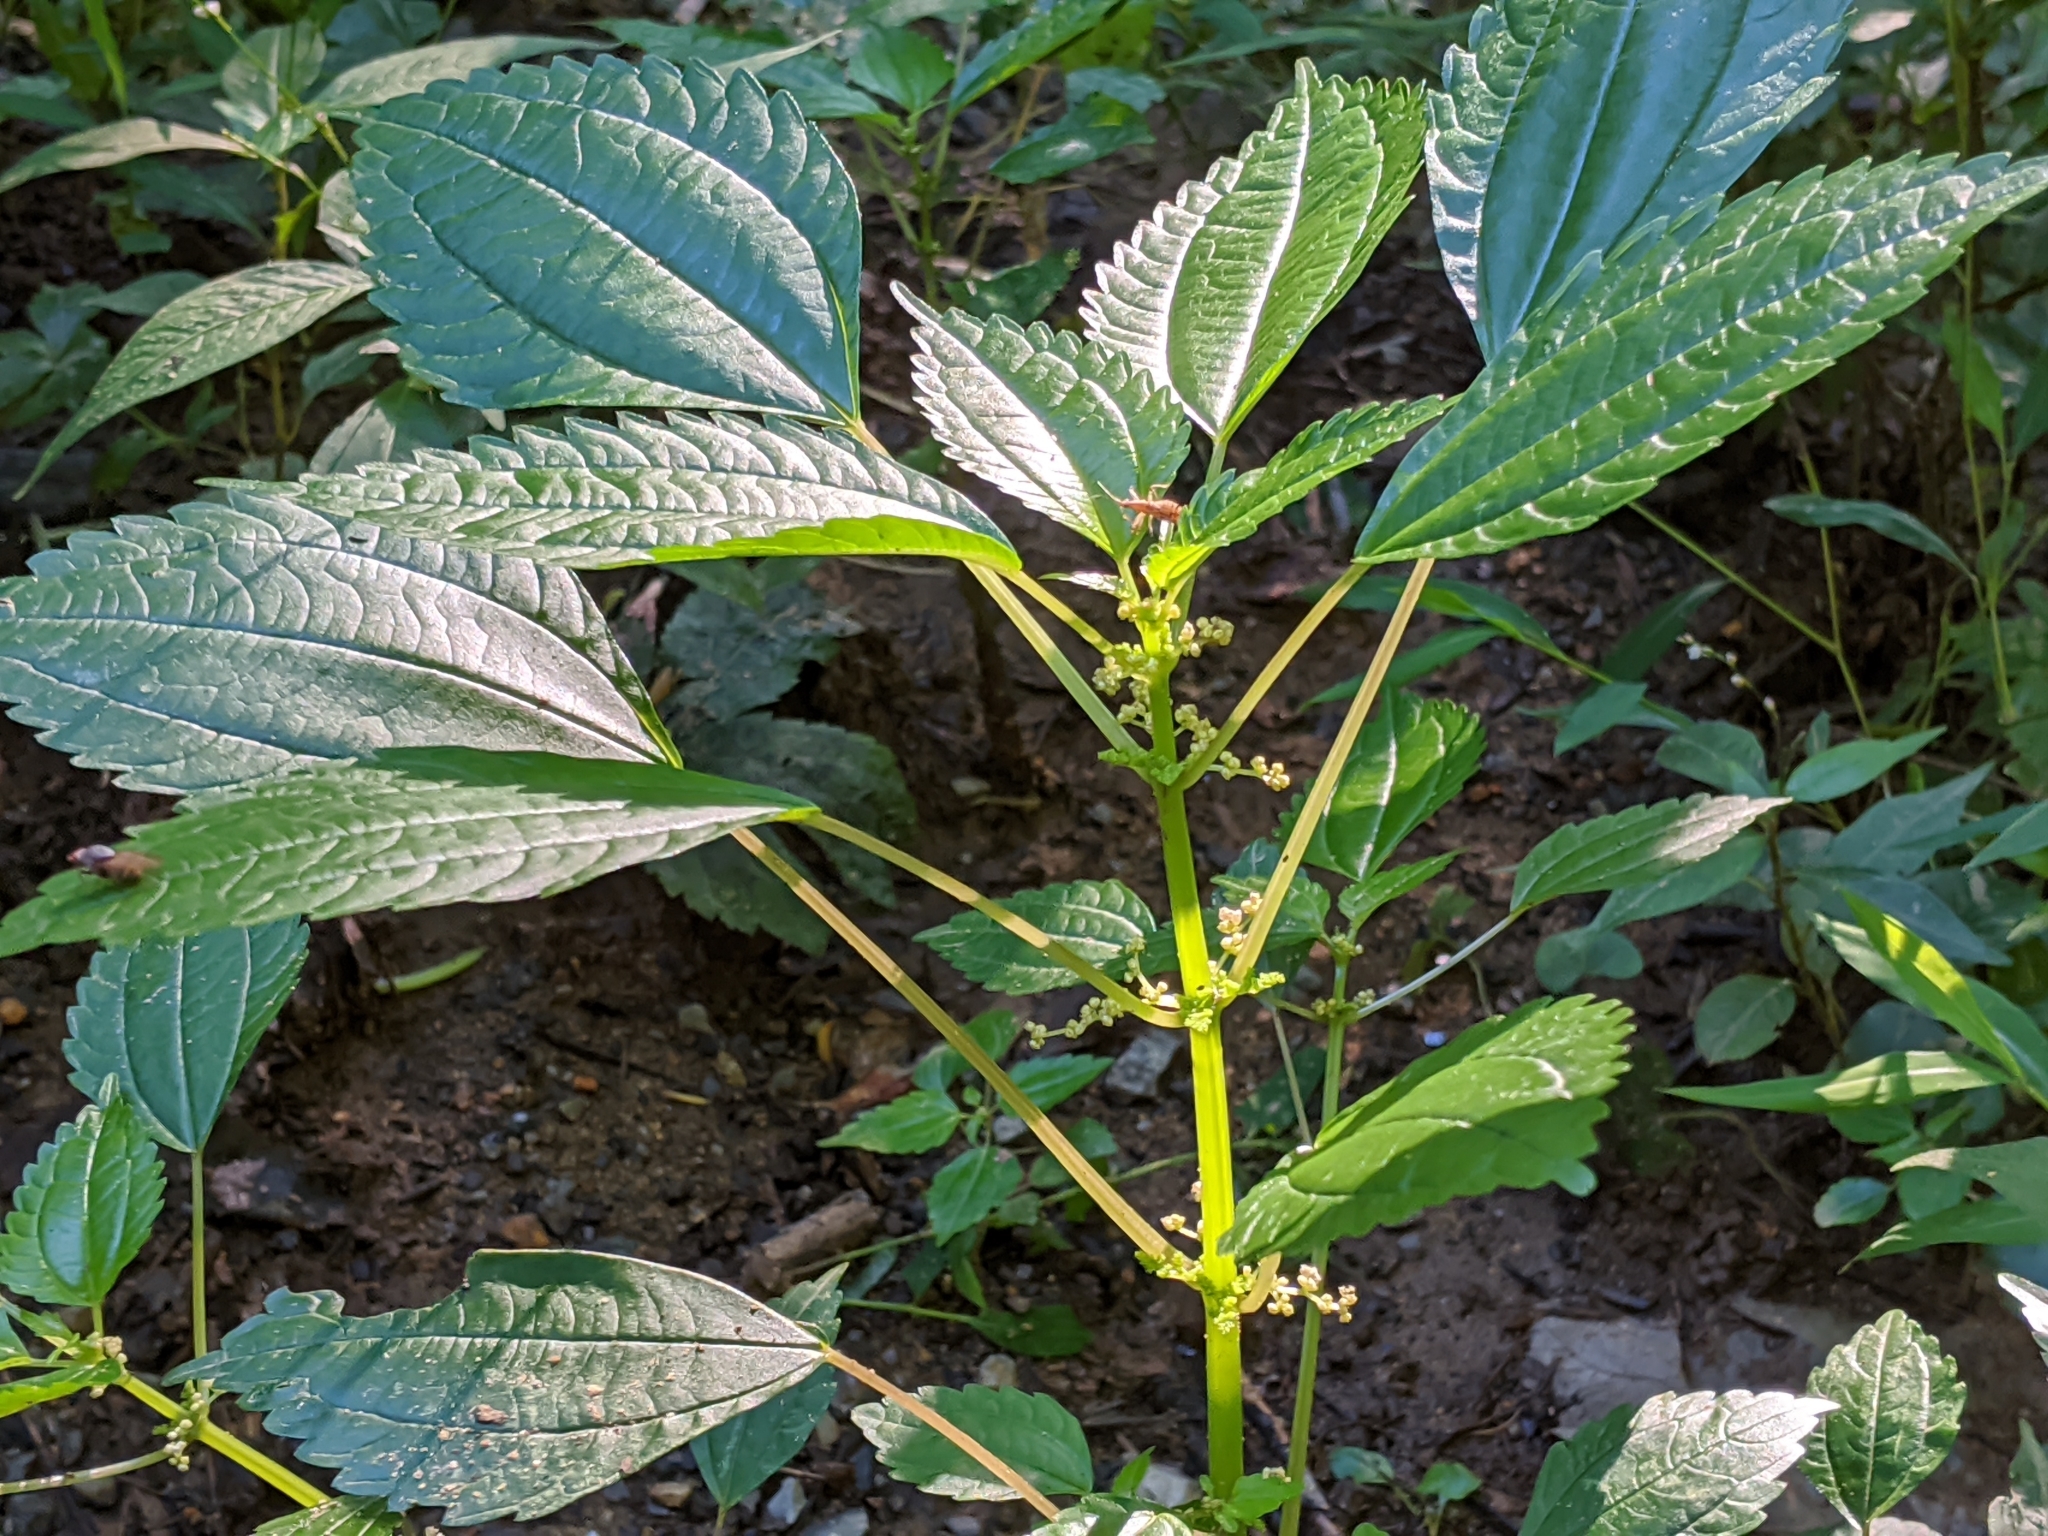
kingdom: Plantae
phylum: Tracheophyta
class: Magnoliopsida
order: Rosales
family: Urticaceae
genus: Pilea
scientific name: Pilea pumila
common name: Clearweed
